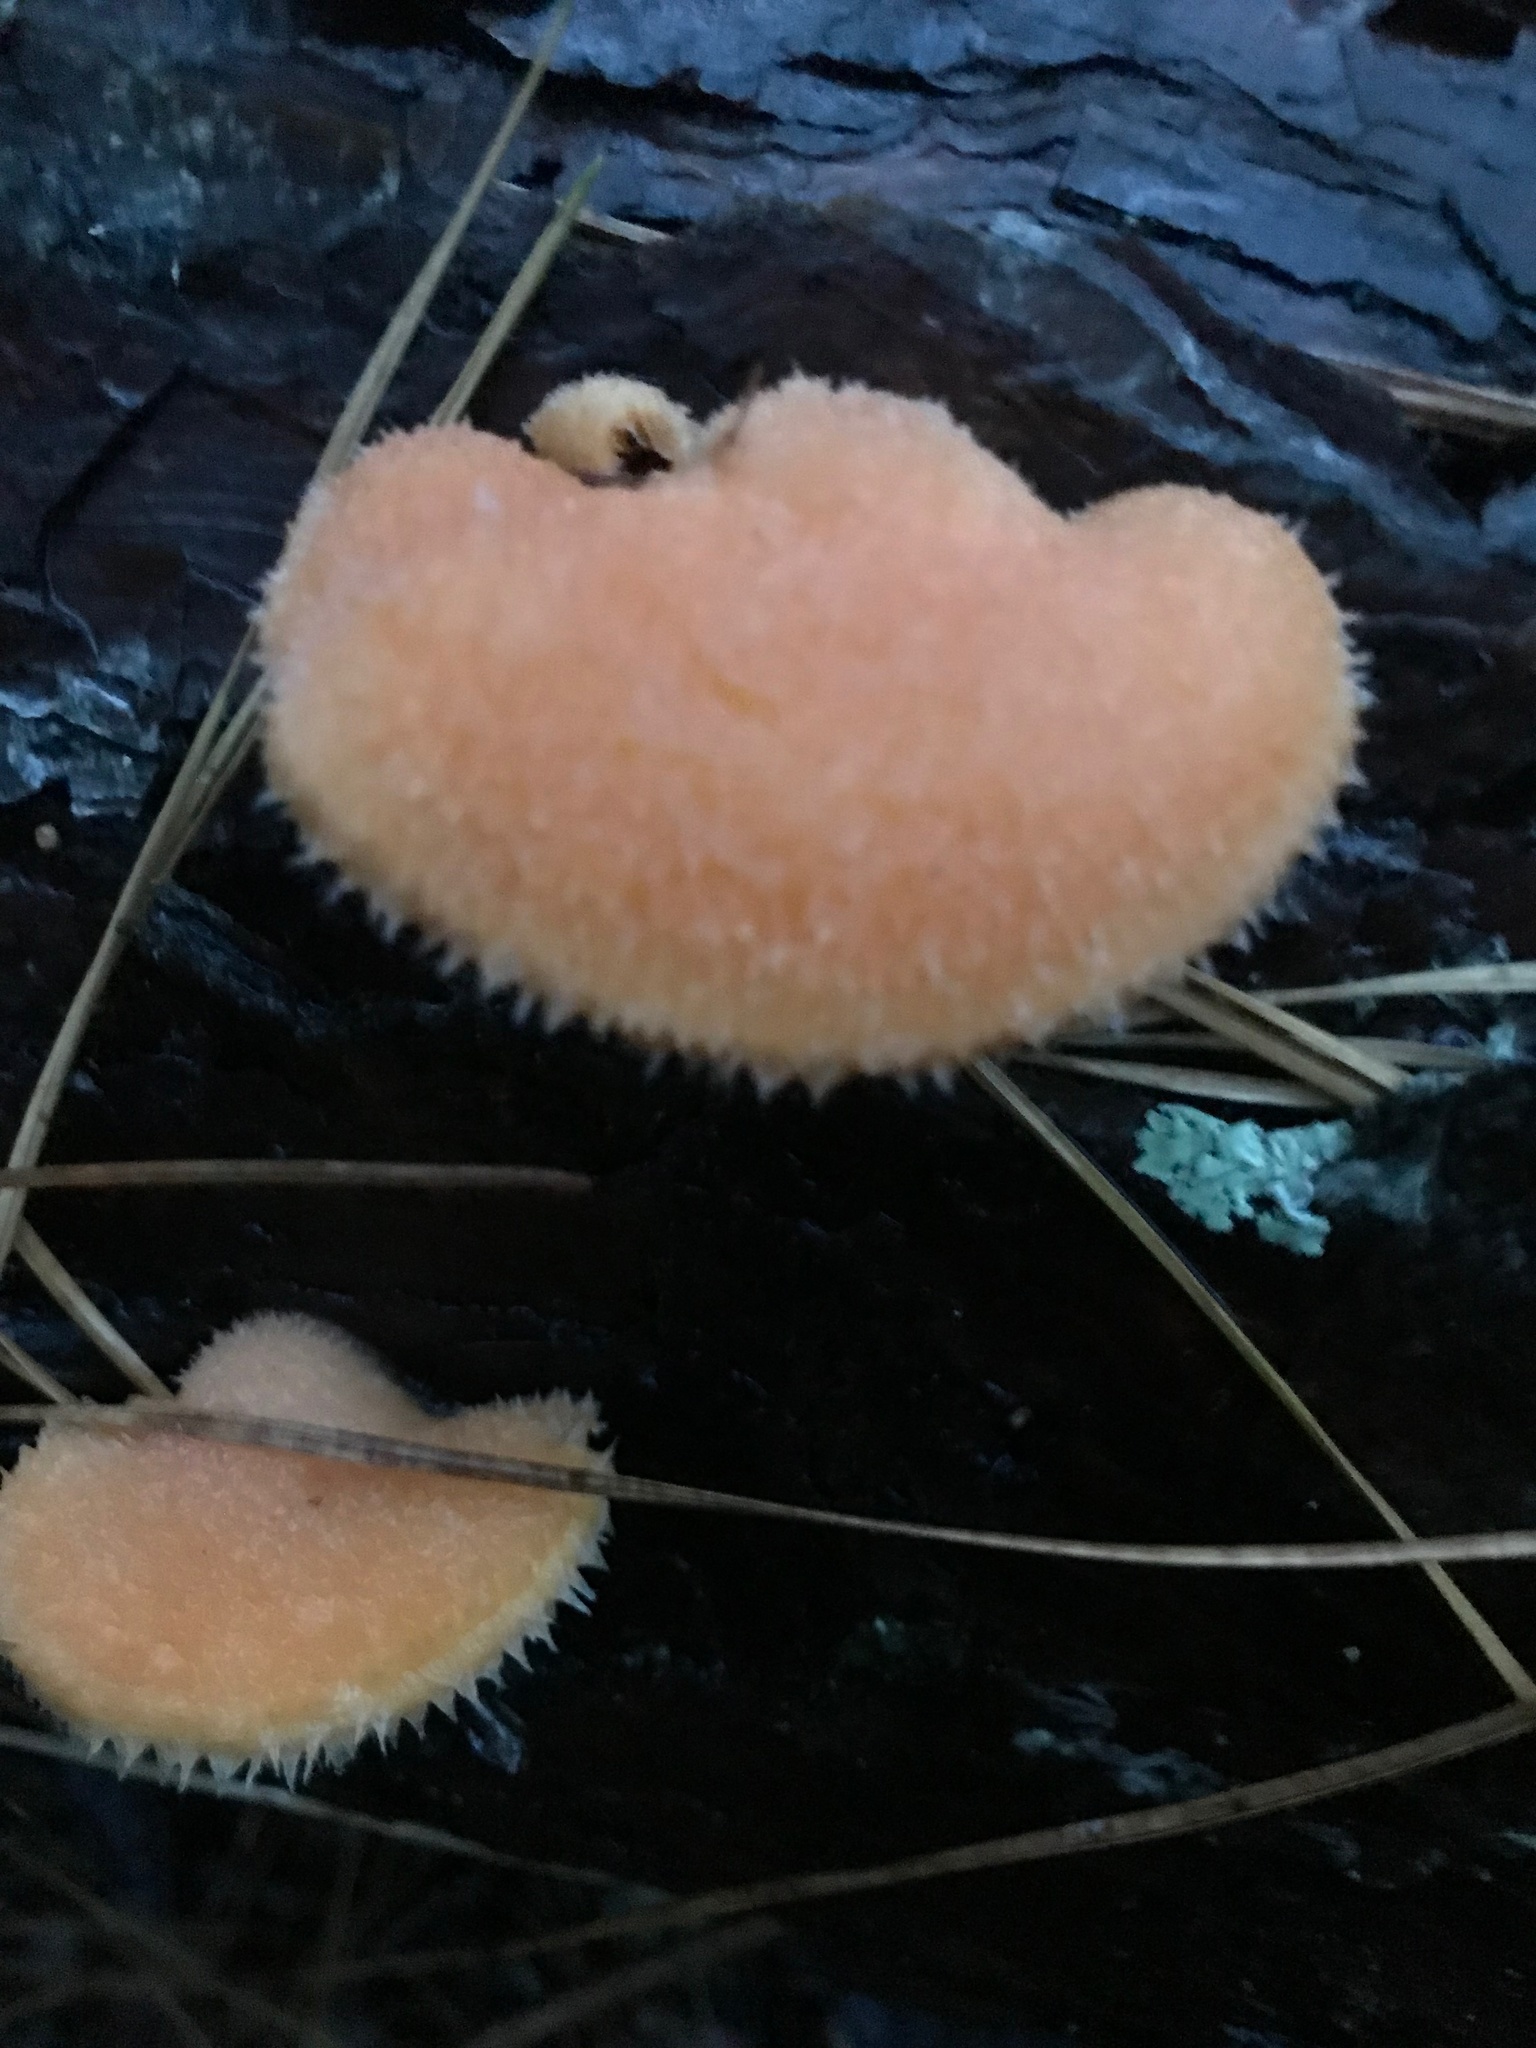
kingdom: Fungi
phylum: Basidiomycota
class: Agaricomycetes
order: Agaricales
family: Phyllotopsidaceae
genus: Phyllotopsis
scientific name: Phyllotopsis nidulans
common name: Orange mock oyster
